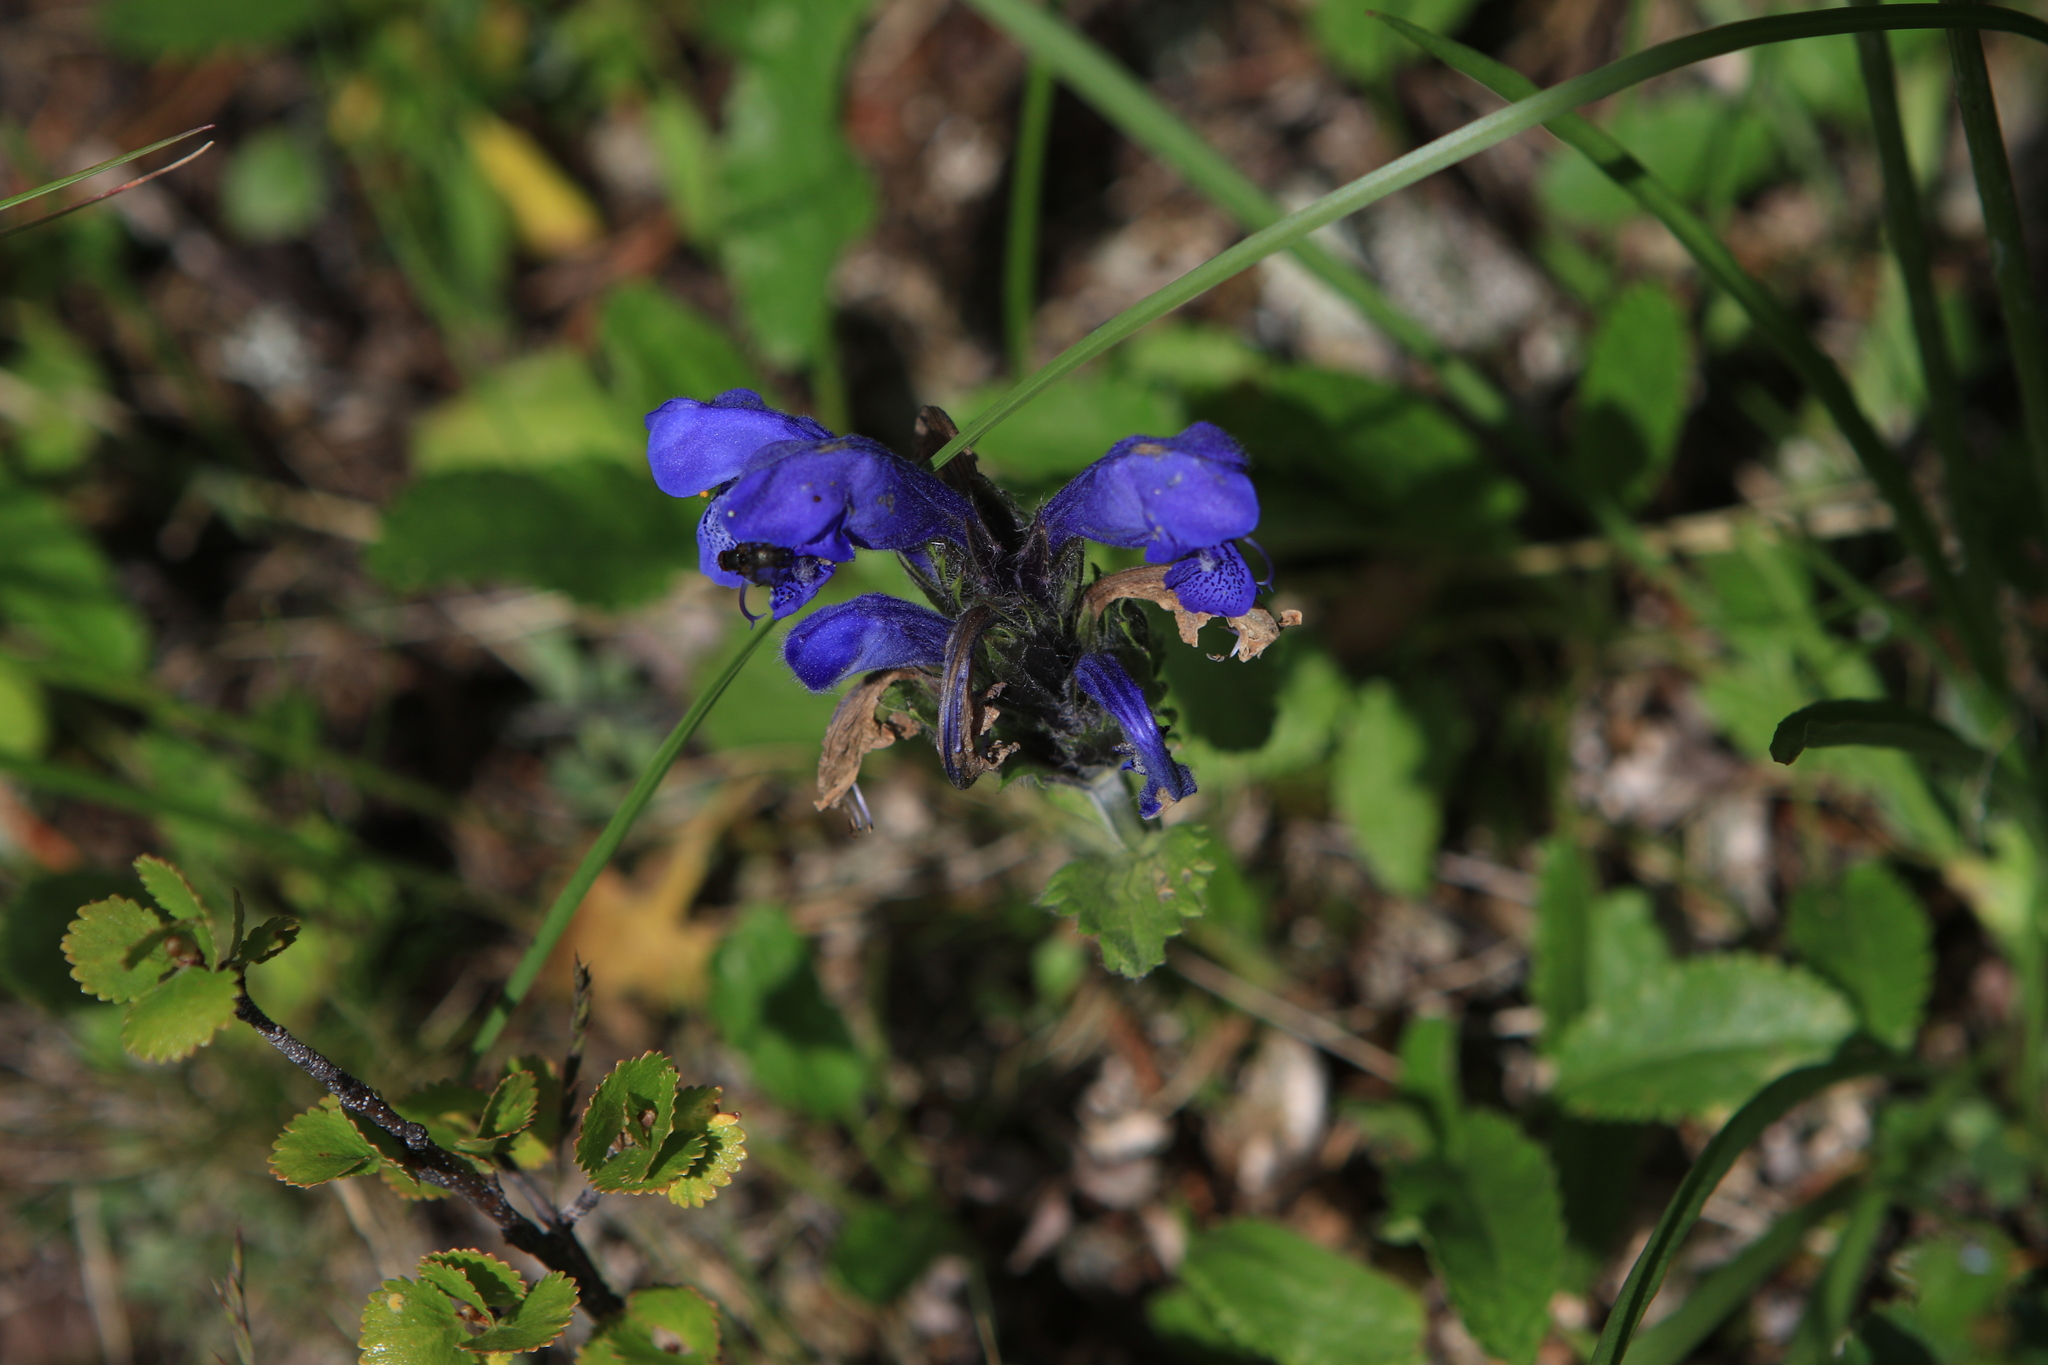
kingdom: Plantae
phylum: Tracheophyta
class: Magnoliopsida
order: Lamiales
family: Lamiaceae
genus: Dracocephalum
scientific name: Dracocephalum grandiflorum
